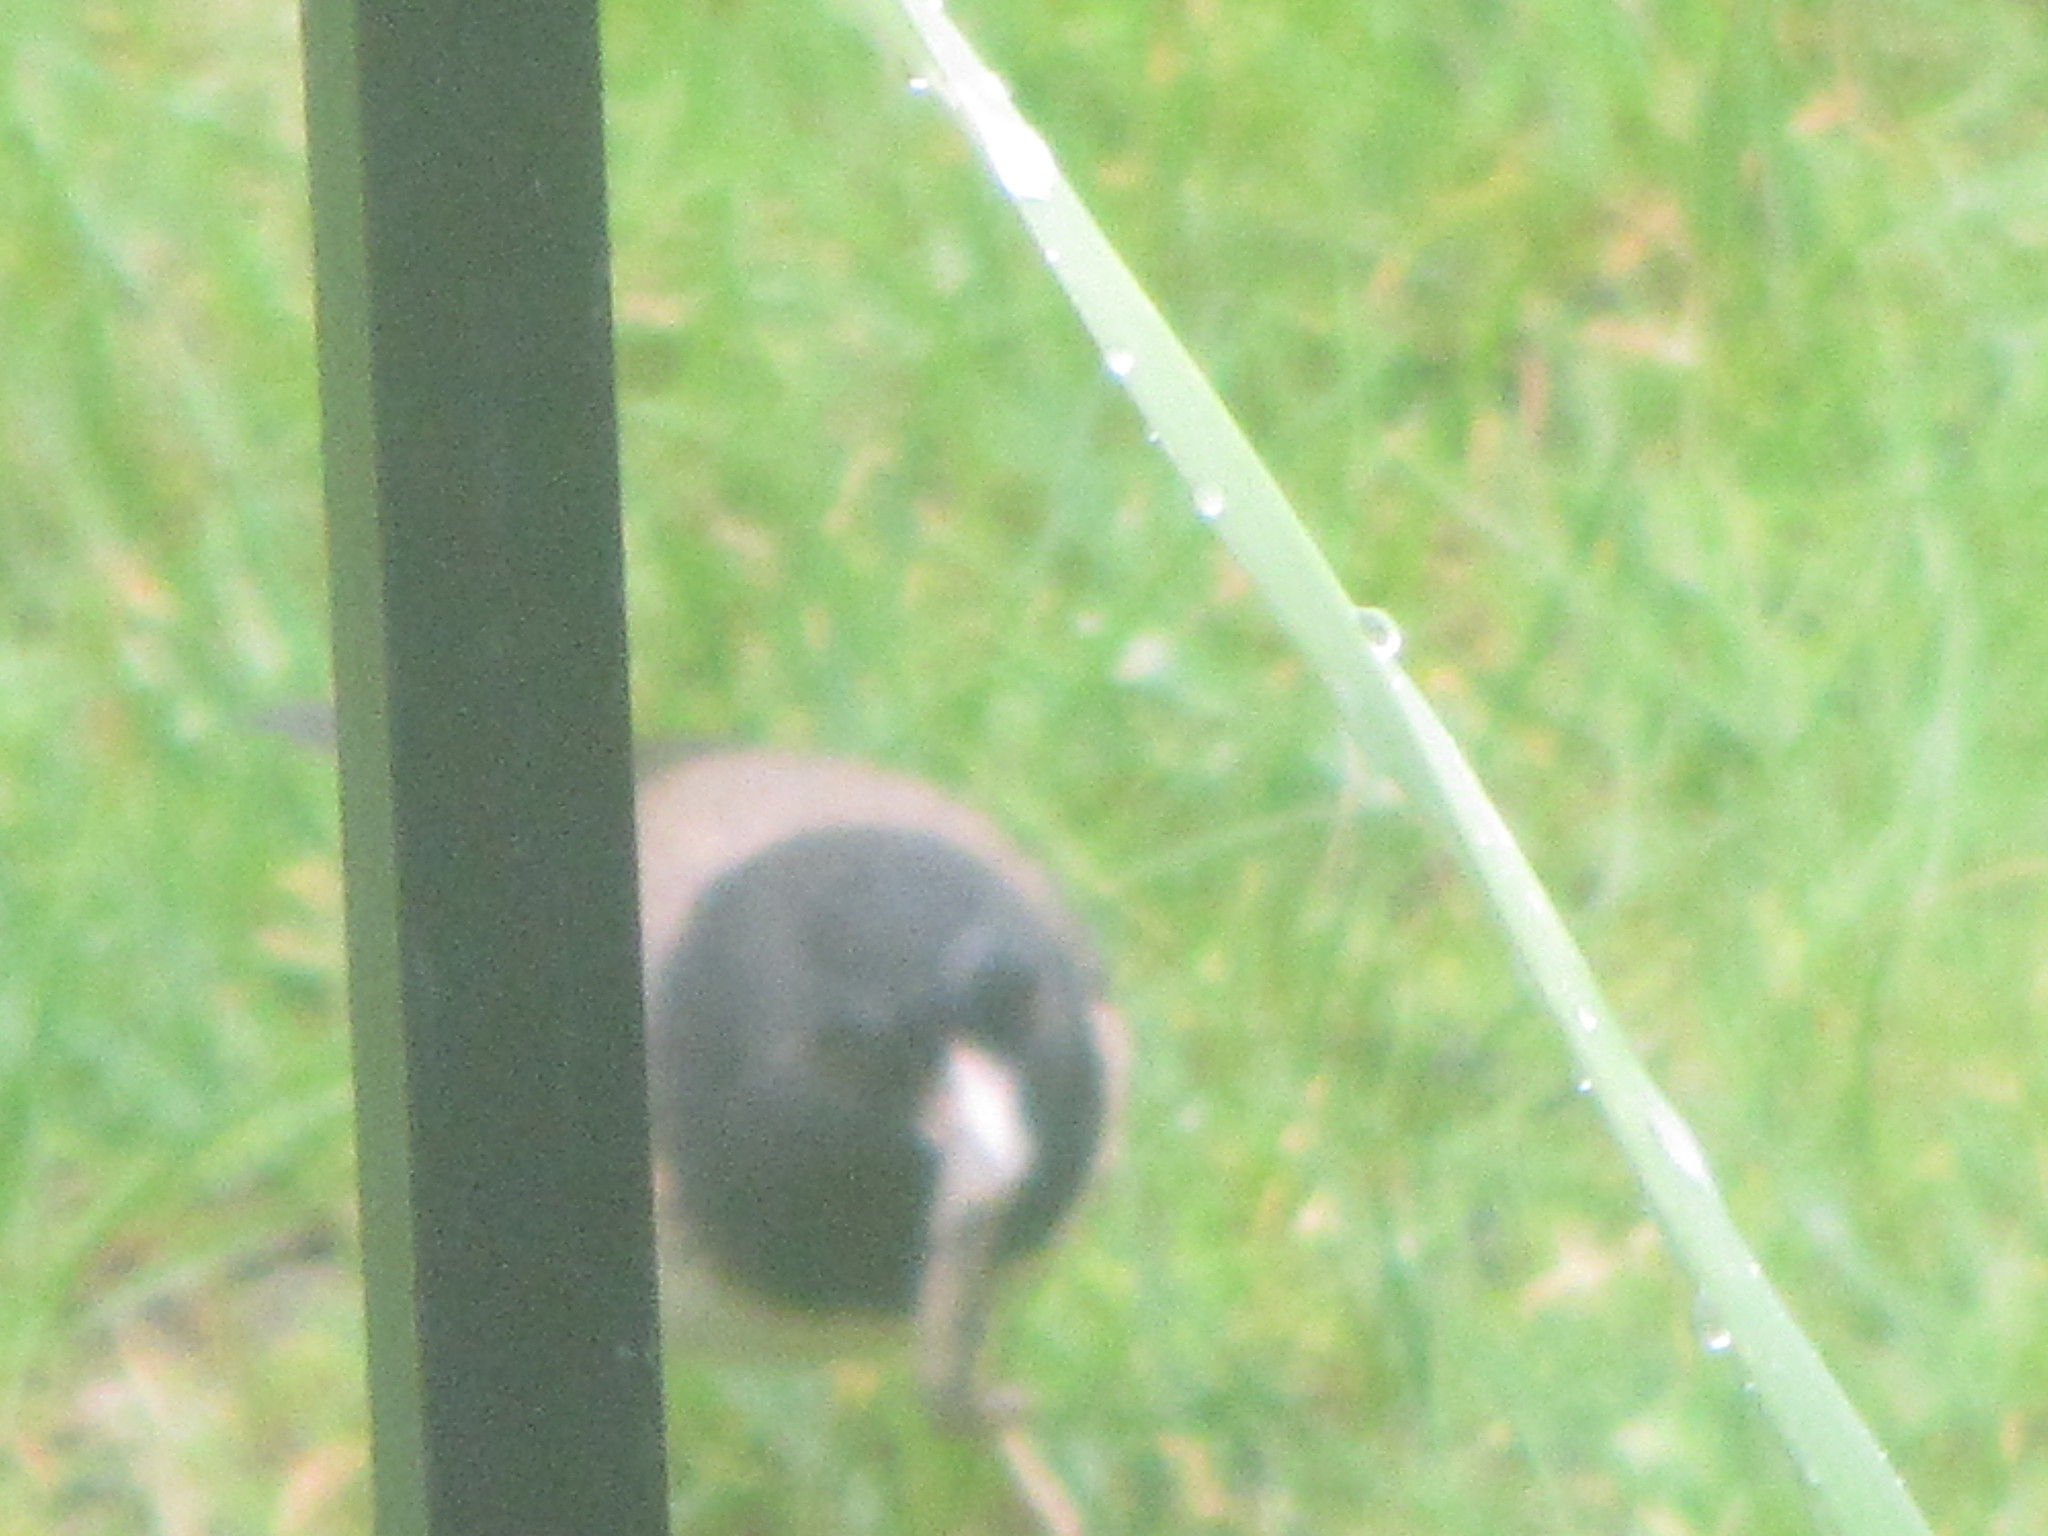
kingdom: Animalia
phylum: Chordata
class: Aves
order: Passeriformes
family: Passerellidae
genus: Junco
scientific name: Junco hyemalis
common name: Dark-eyed junco
